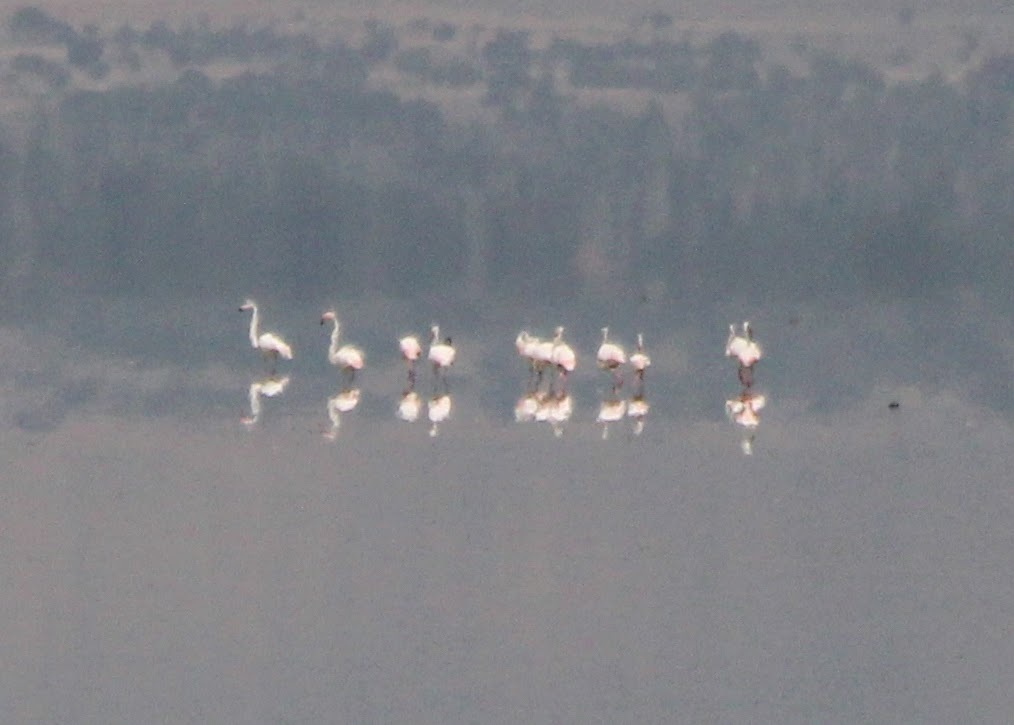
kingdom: Animalia
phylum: Chordata
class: Aves
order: Phoenicopteriformes
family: Phoenicopteridae
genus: Phoenicopterus
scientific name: Phoenicopterus roseus
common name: Greater flamingo
